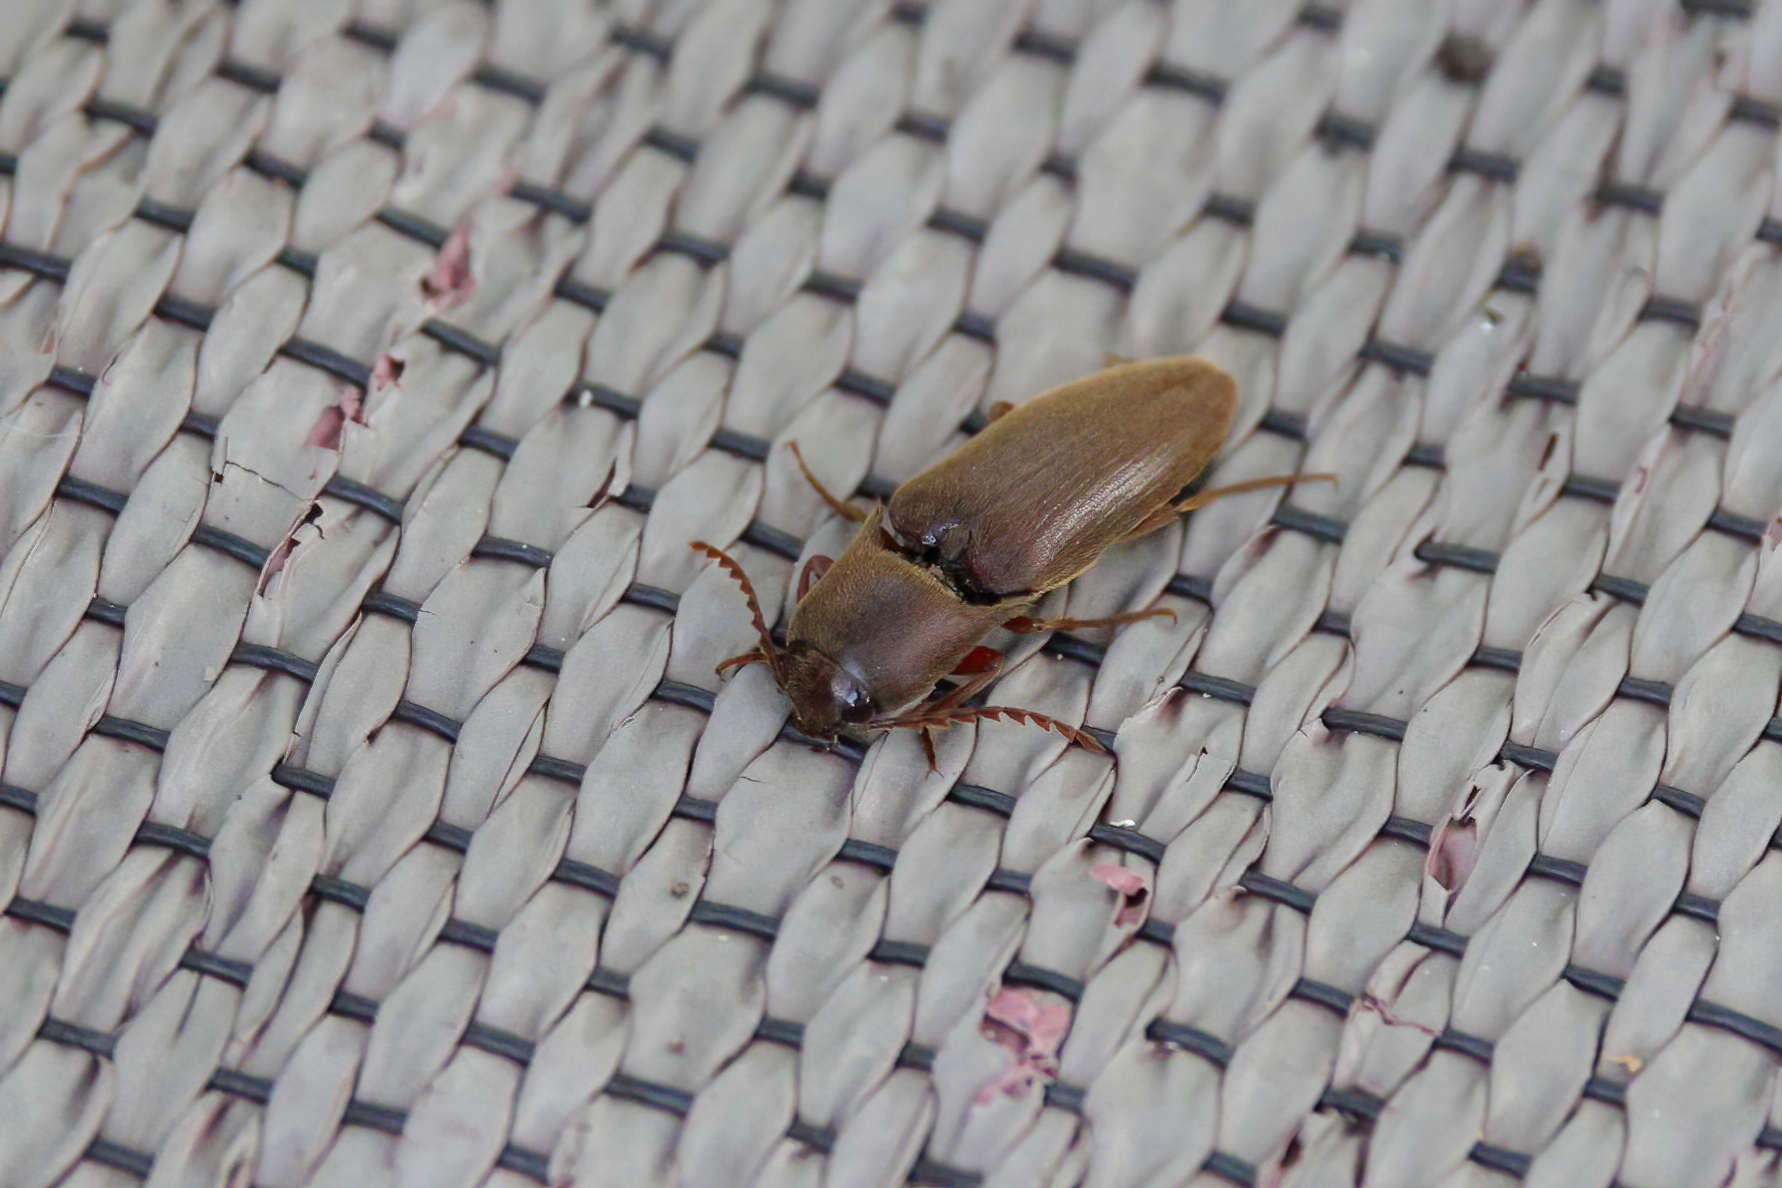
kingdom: Animalia
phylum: Arthropoda
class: Insecta
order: Coleoptera
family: Elateridae
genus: Diplostethus
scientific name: Diplostethus
